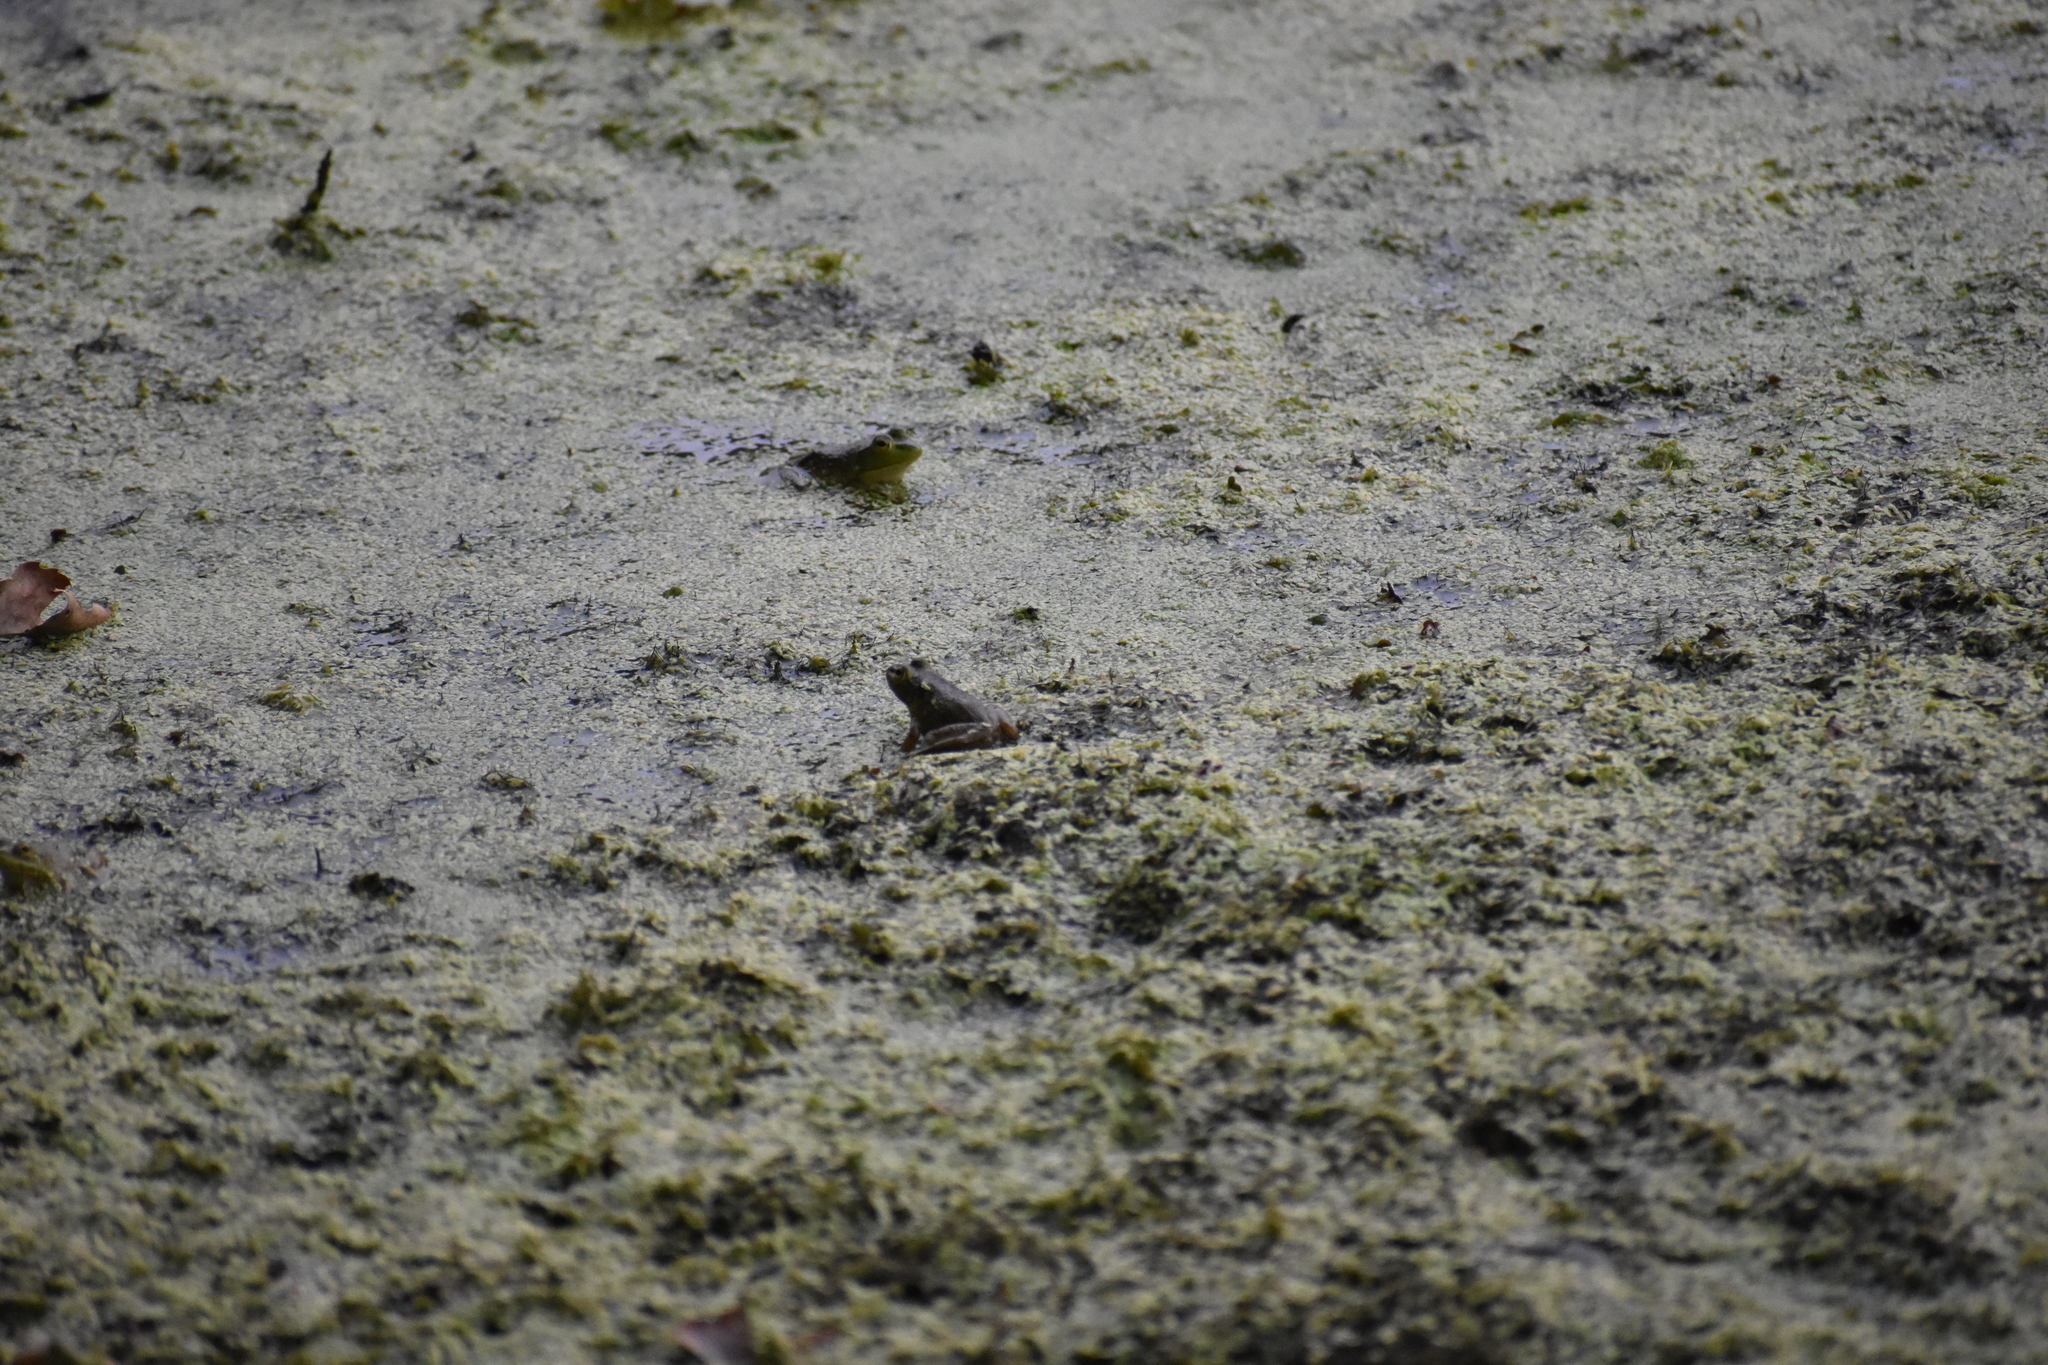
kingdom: Animalia
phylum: Chordata
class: Amphibia
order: Anura
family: Ranidae
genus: Lithobates
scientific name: Lithobates catesbeianus
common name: American bullfrog
